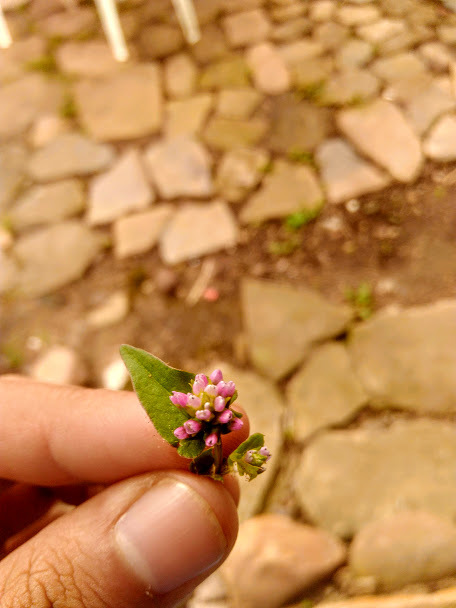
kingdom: Plantae
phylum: Tracheophyta
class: Magnoliopsida
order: Caryophyllales
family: Polygonaceae
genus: Persicaria
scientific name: Persicaria nepalensis
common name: Nepal persicaria
